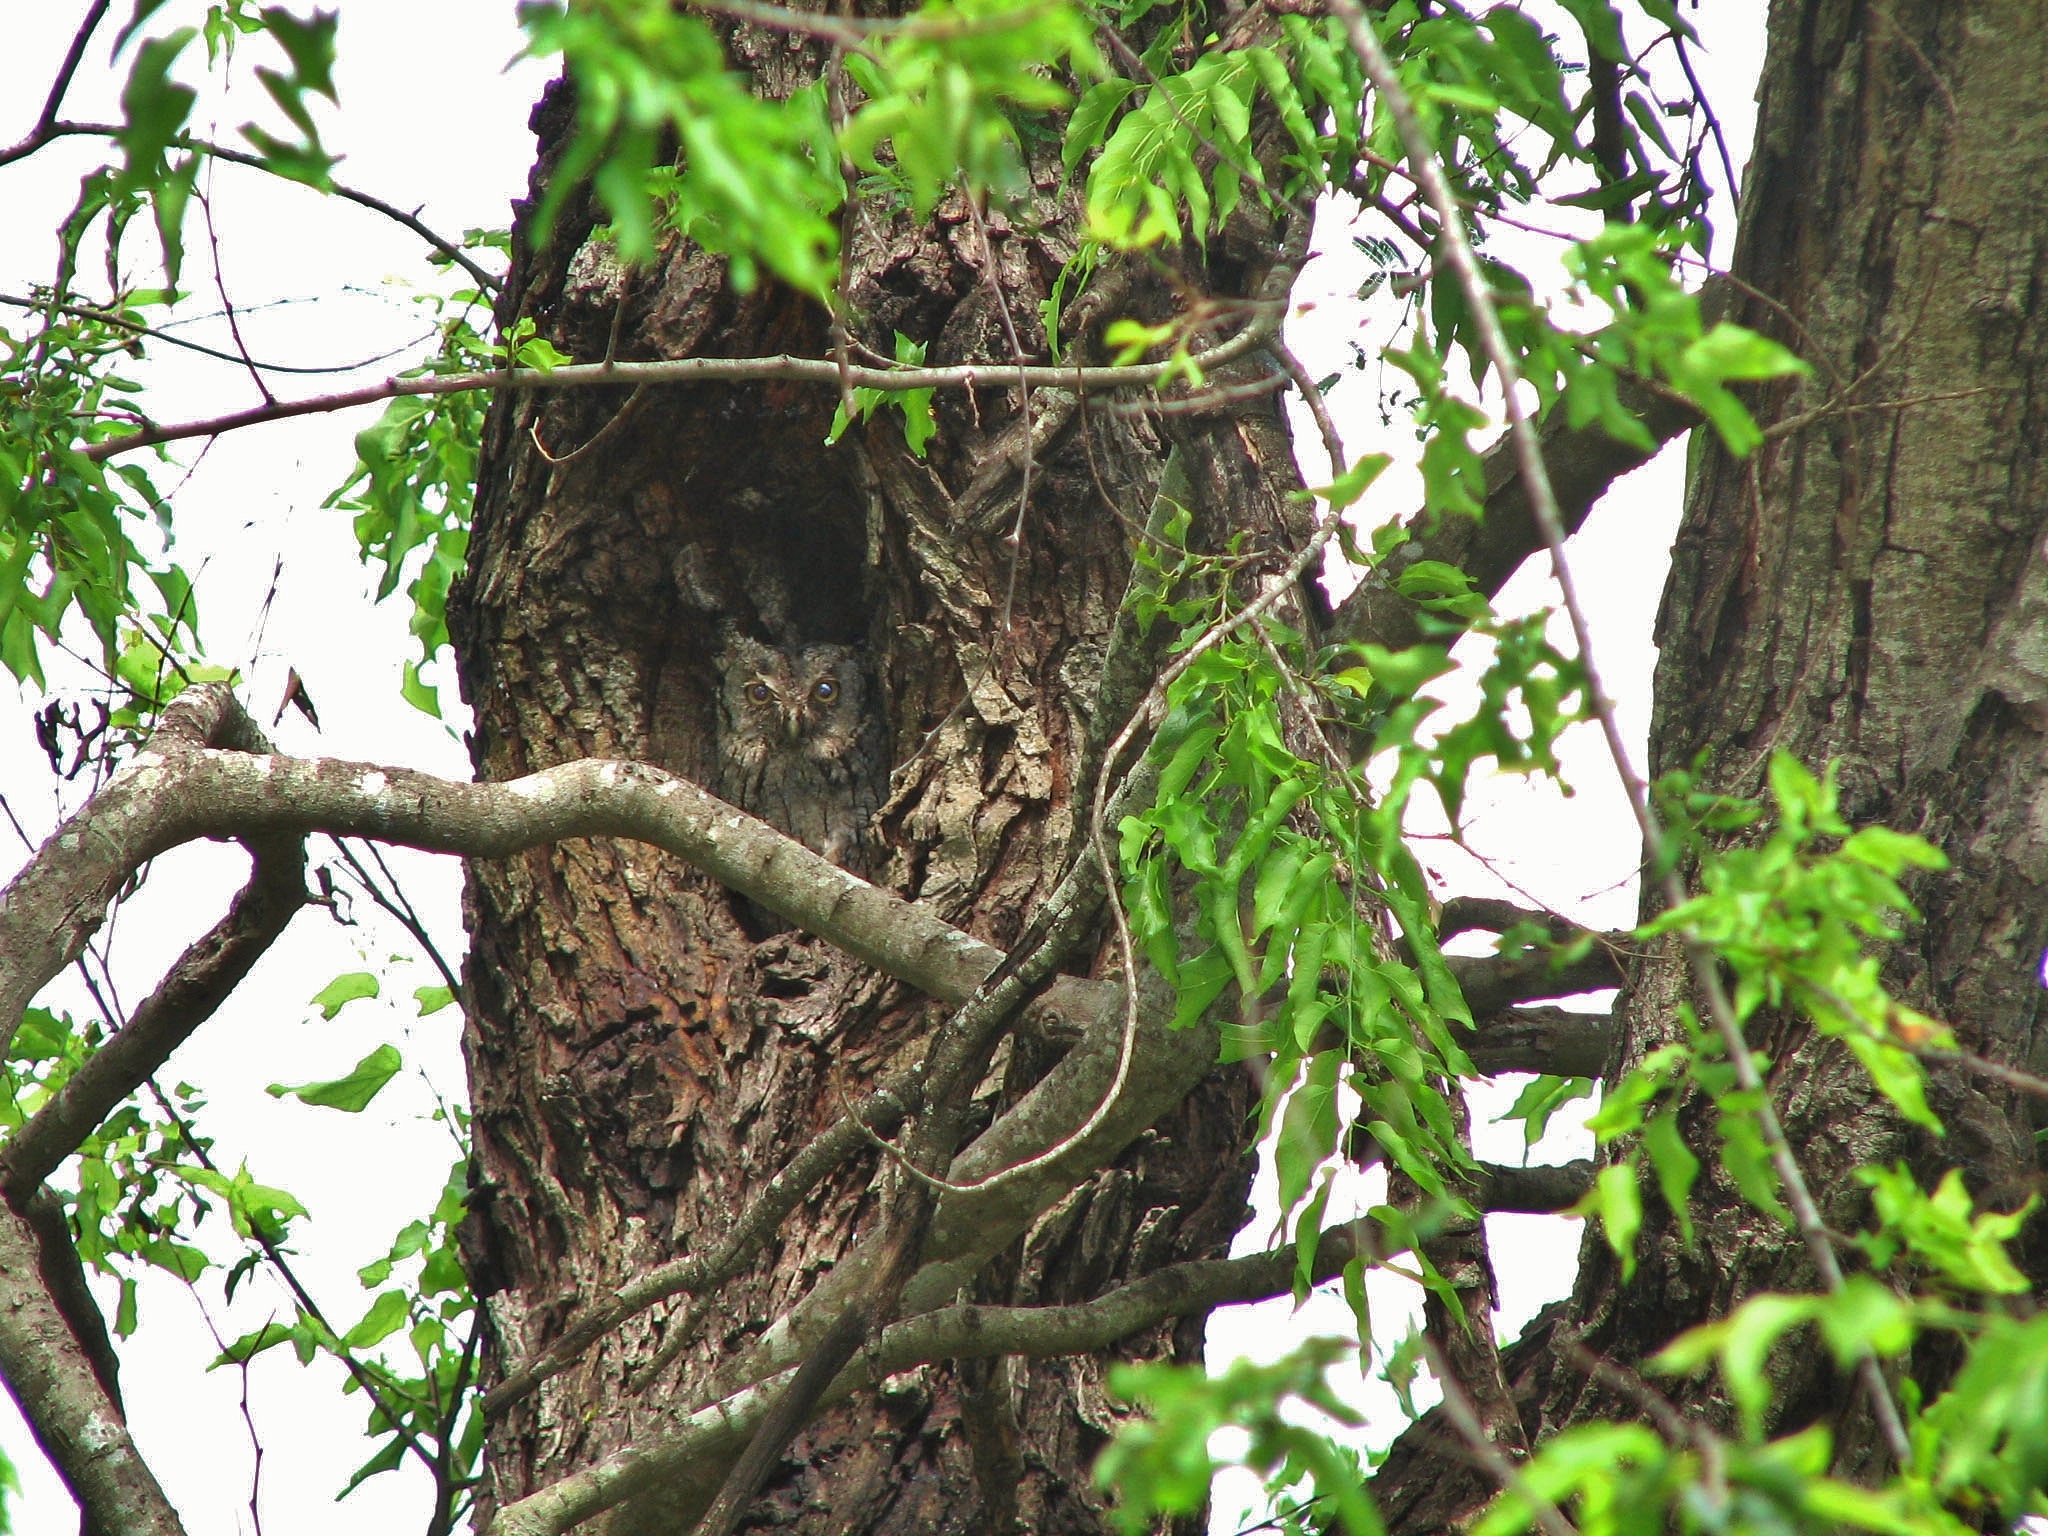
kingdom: Animalia
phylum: Chordata
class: Aves
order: Strigiformes
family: Strigidae
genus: Megascops
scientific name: Megascops asio
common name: Eastern screech-owl
